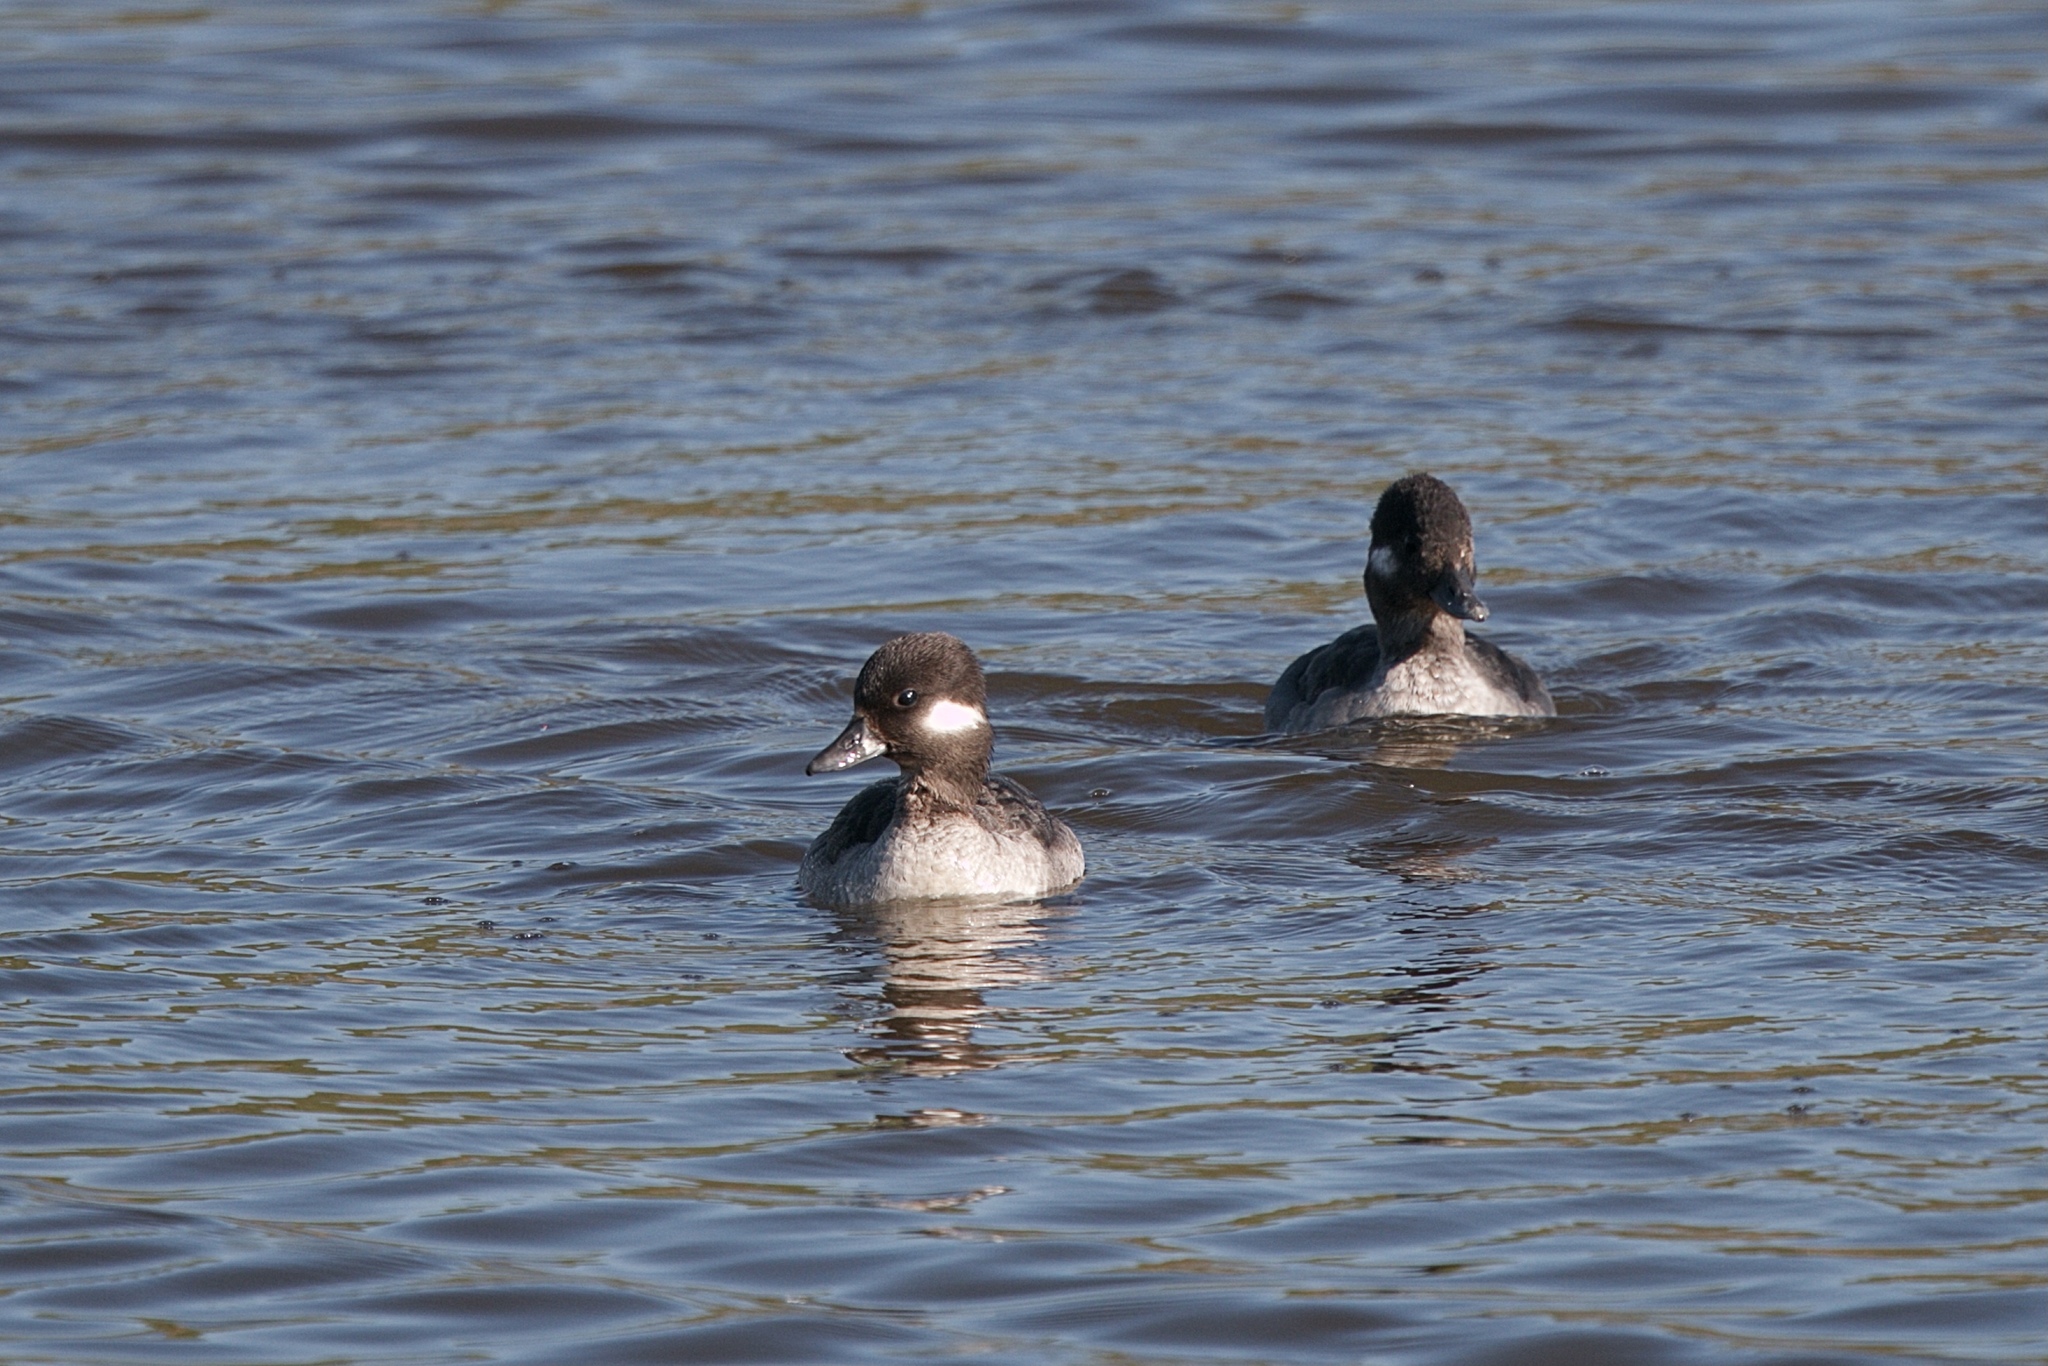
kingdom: Animalia
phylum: Chordata
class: Aves
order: Anseriformes
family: Anatidae
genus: Bucephala
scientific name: Bucephala albeola
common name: Bufflehead
